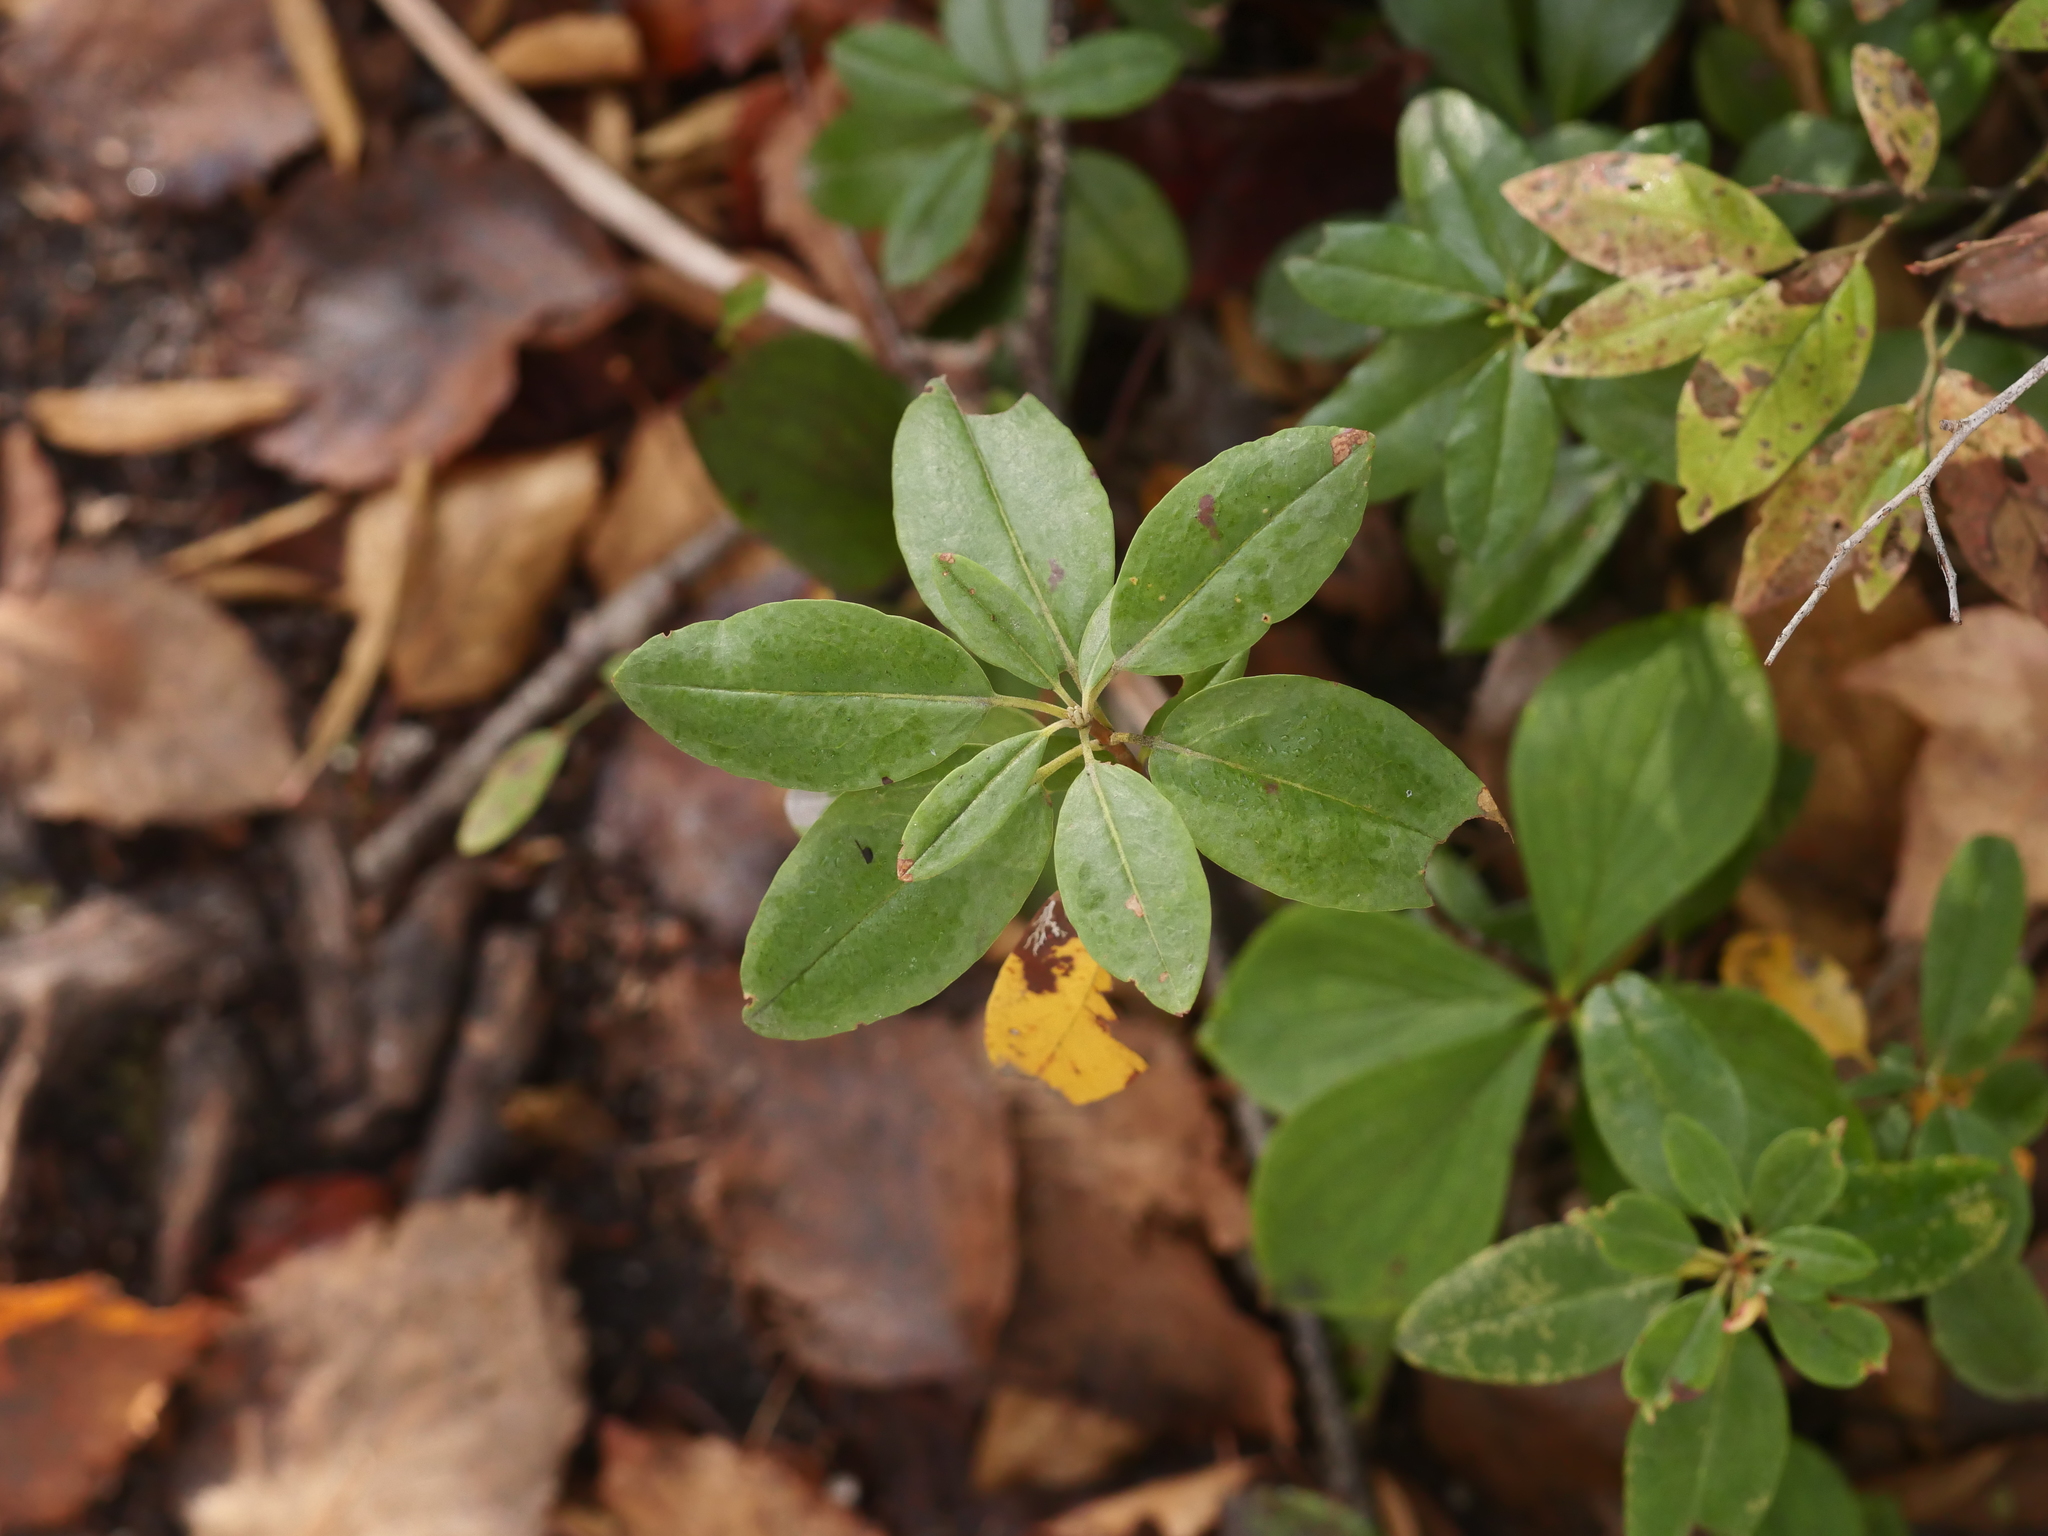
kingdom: Plantae
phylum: Tracheophyta
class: Magnoliopsida
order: Ericales
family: Ericaceae
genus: Kalmia
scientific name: Kalmia angustifolia
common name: Sheep-laurel
